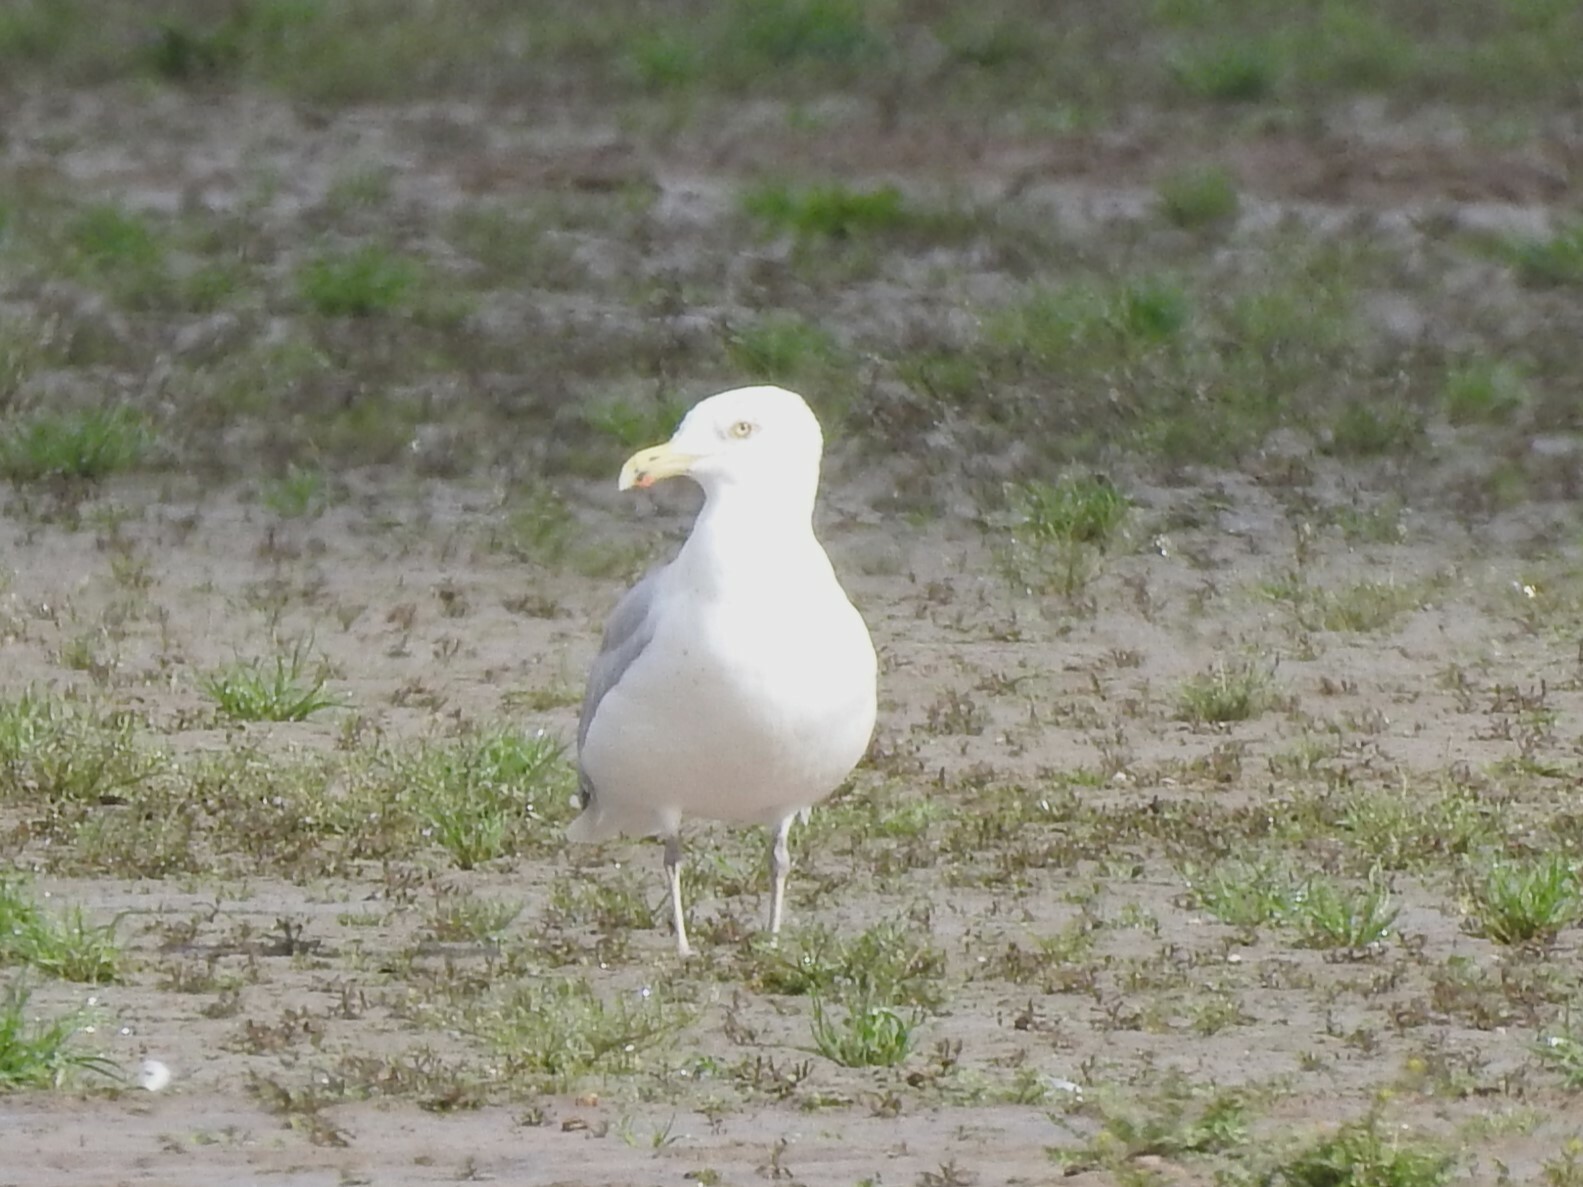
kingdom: Animalia
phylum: Chordata
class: Aves
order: Charadriiformes
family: Laridae
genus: Larus
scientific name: Larus argentatus
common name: Herring gull
